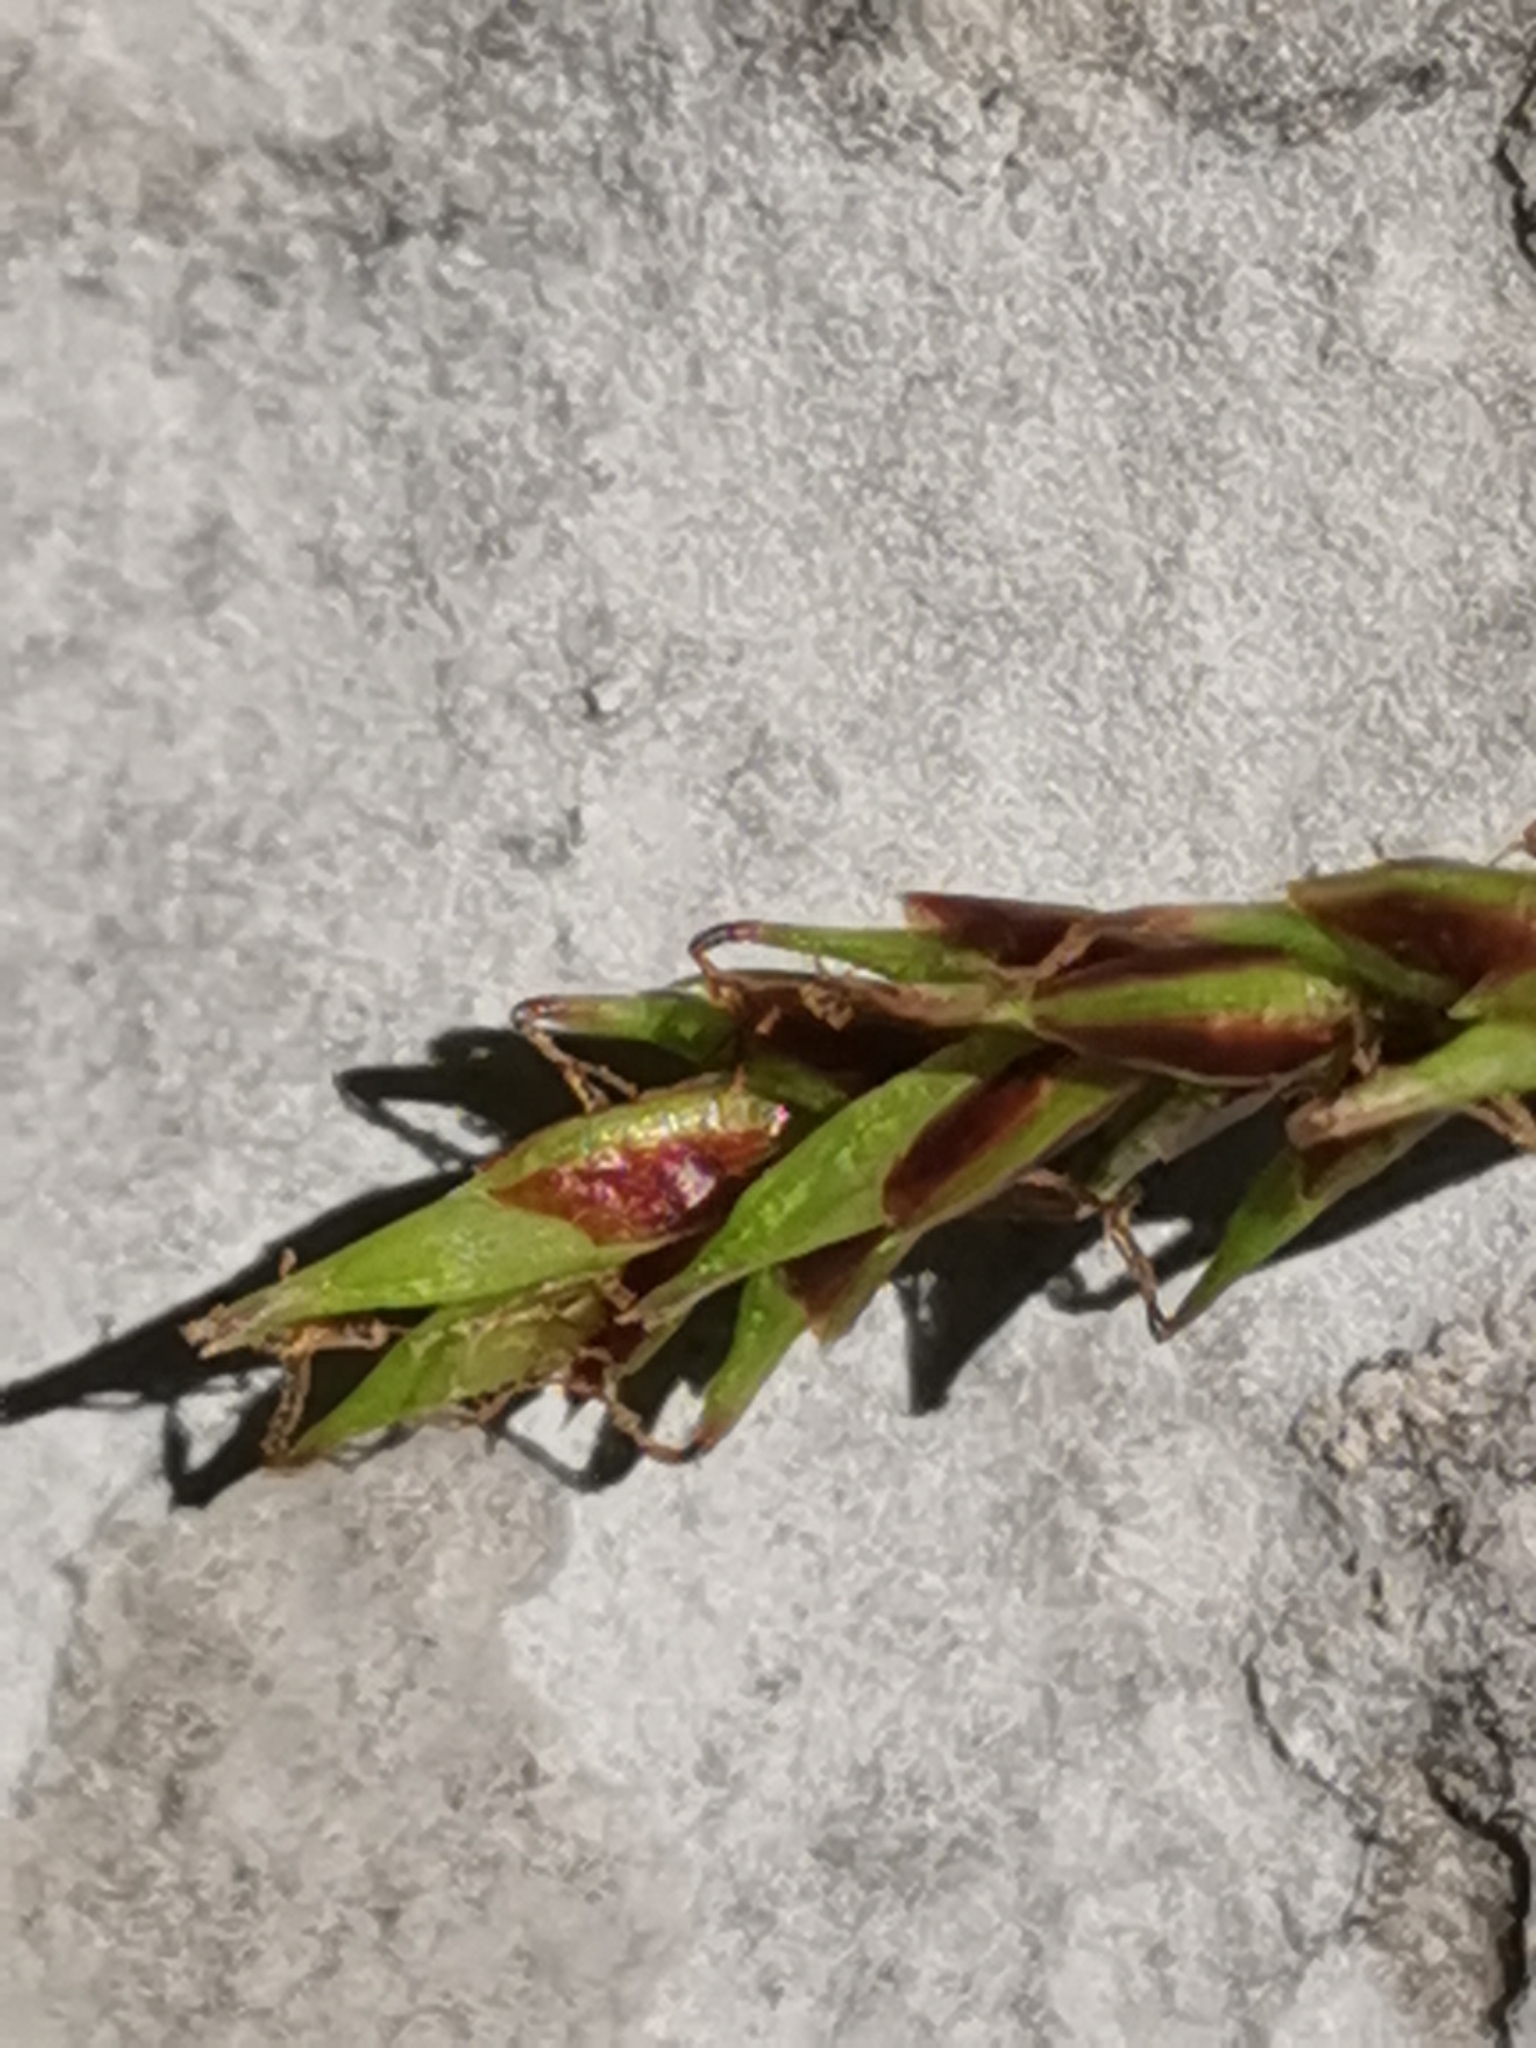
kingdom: Plantae
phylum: Tracheophyta
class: Liliopsida
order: Poales
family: Cyperaceae
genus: Carex
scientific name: Carex brachystachys
